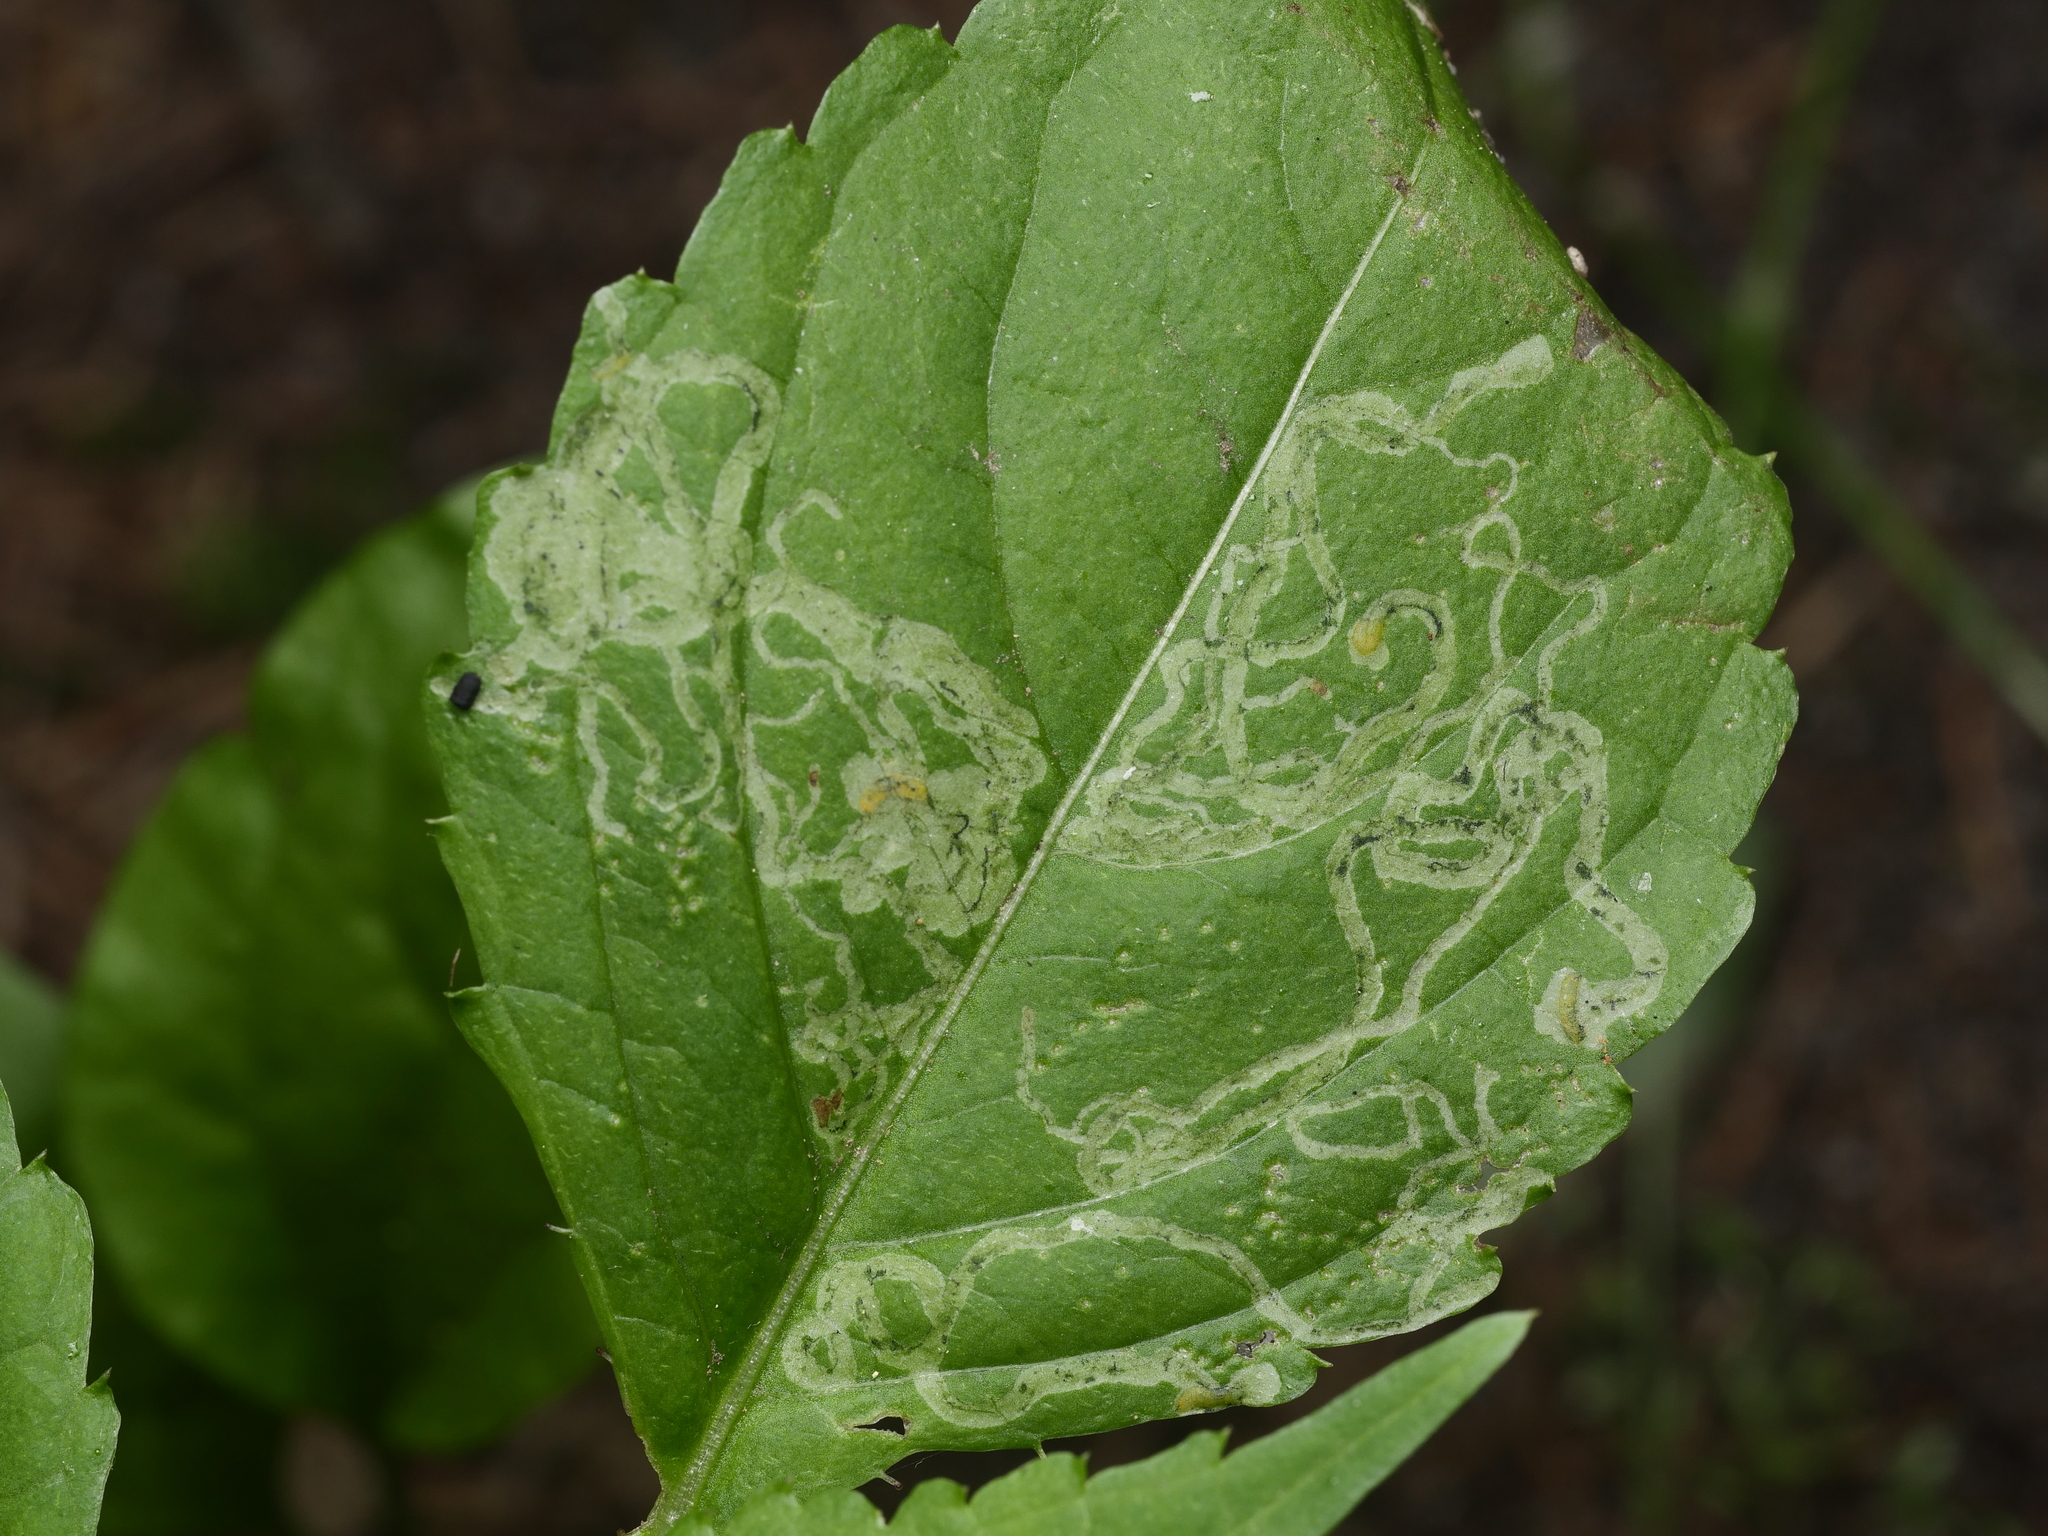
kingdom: Animalia
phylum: Arthropoda
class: Insecta
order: Diptera
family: Agromyzidae
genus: Phytoliriomyza
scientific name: Phytoliriomyza melampyga
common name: Jewelweed leaf-miner fly
